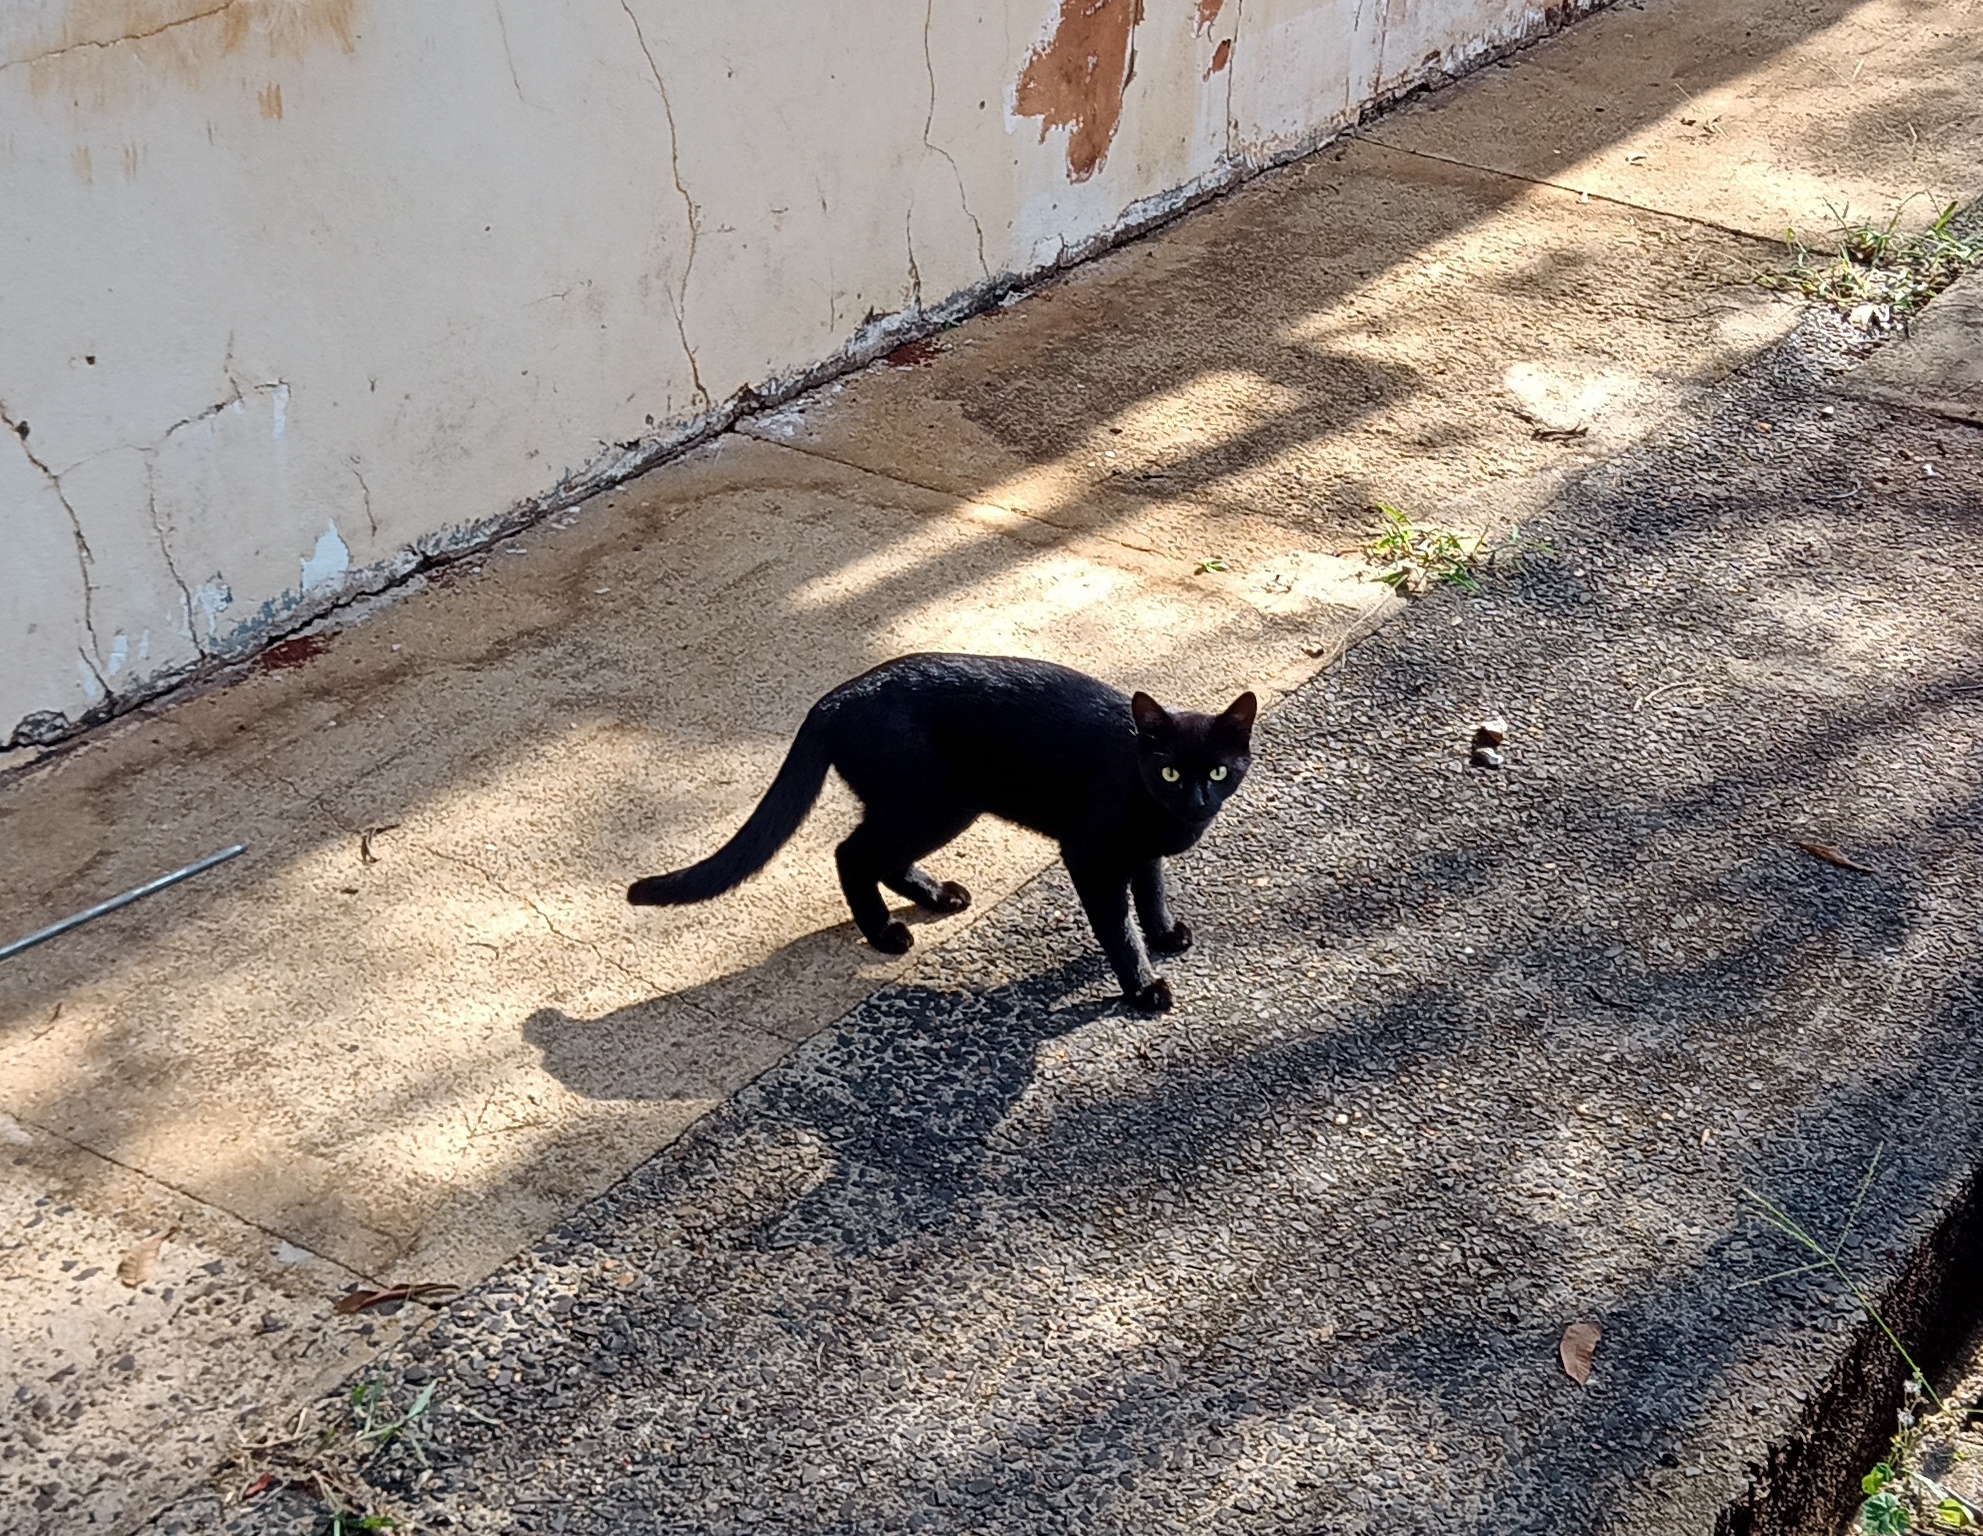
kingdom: Animalia
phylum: Chordata
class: Mammalia
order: Carnivora
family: Felidae
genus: Felis
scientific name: Felis catus
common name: Domestic cat
